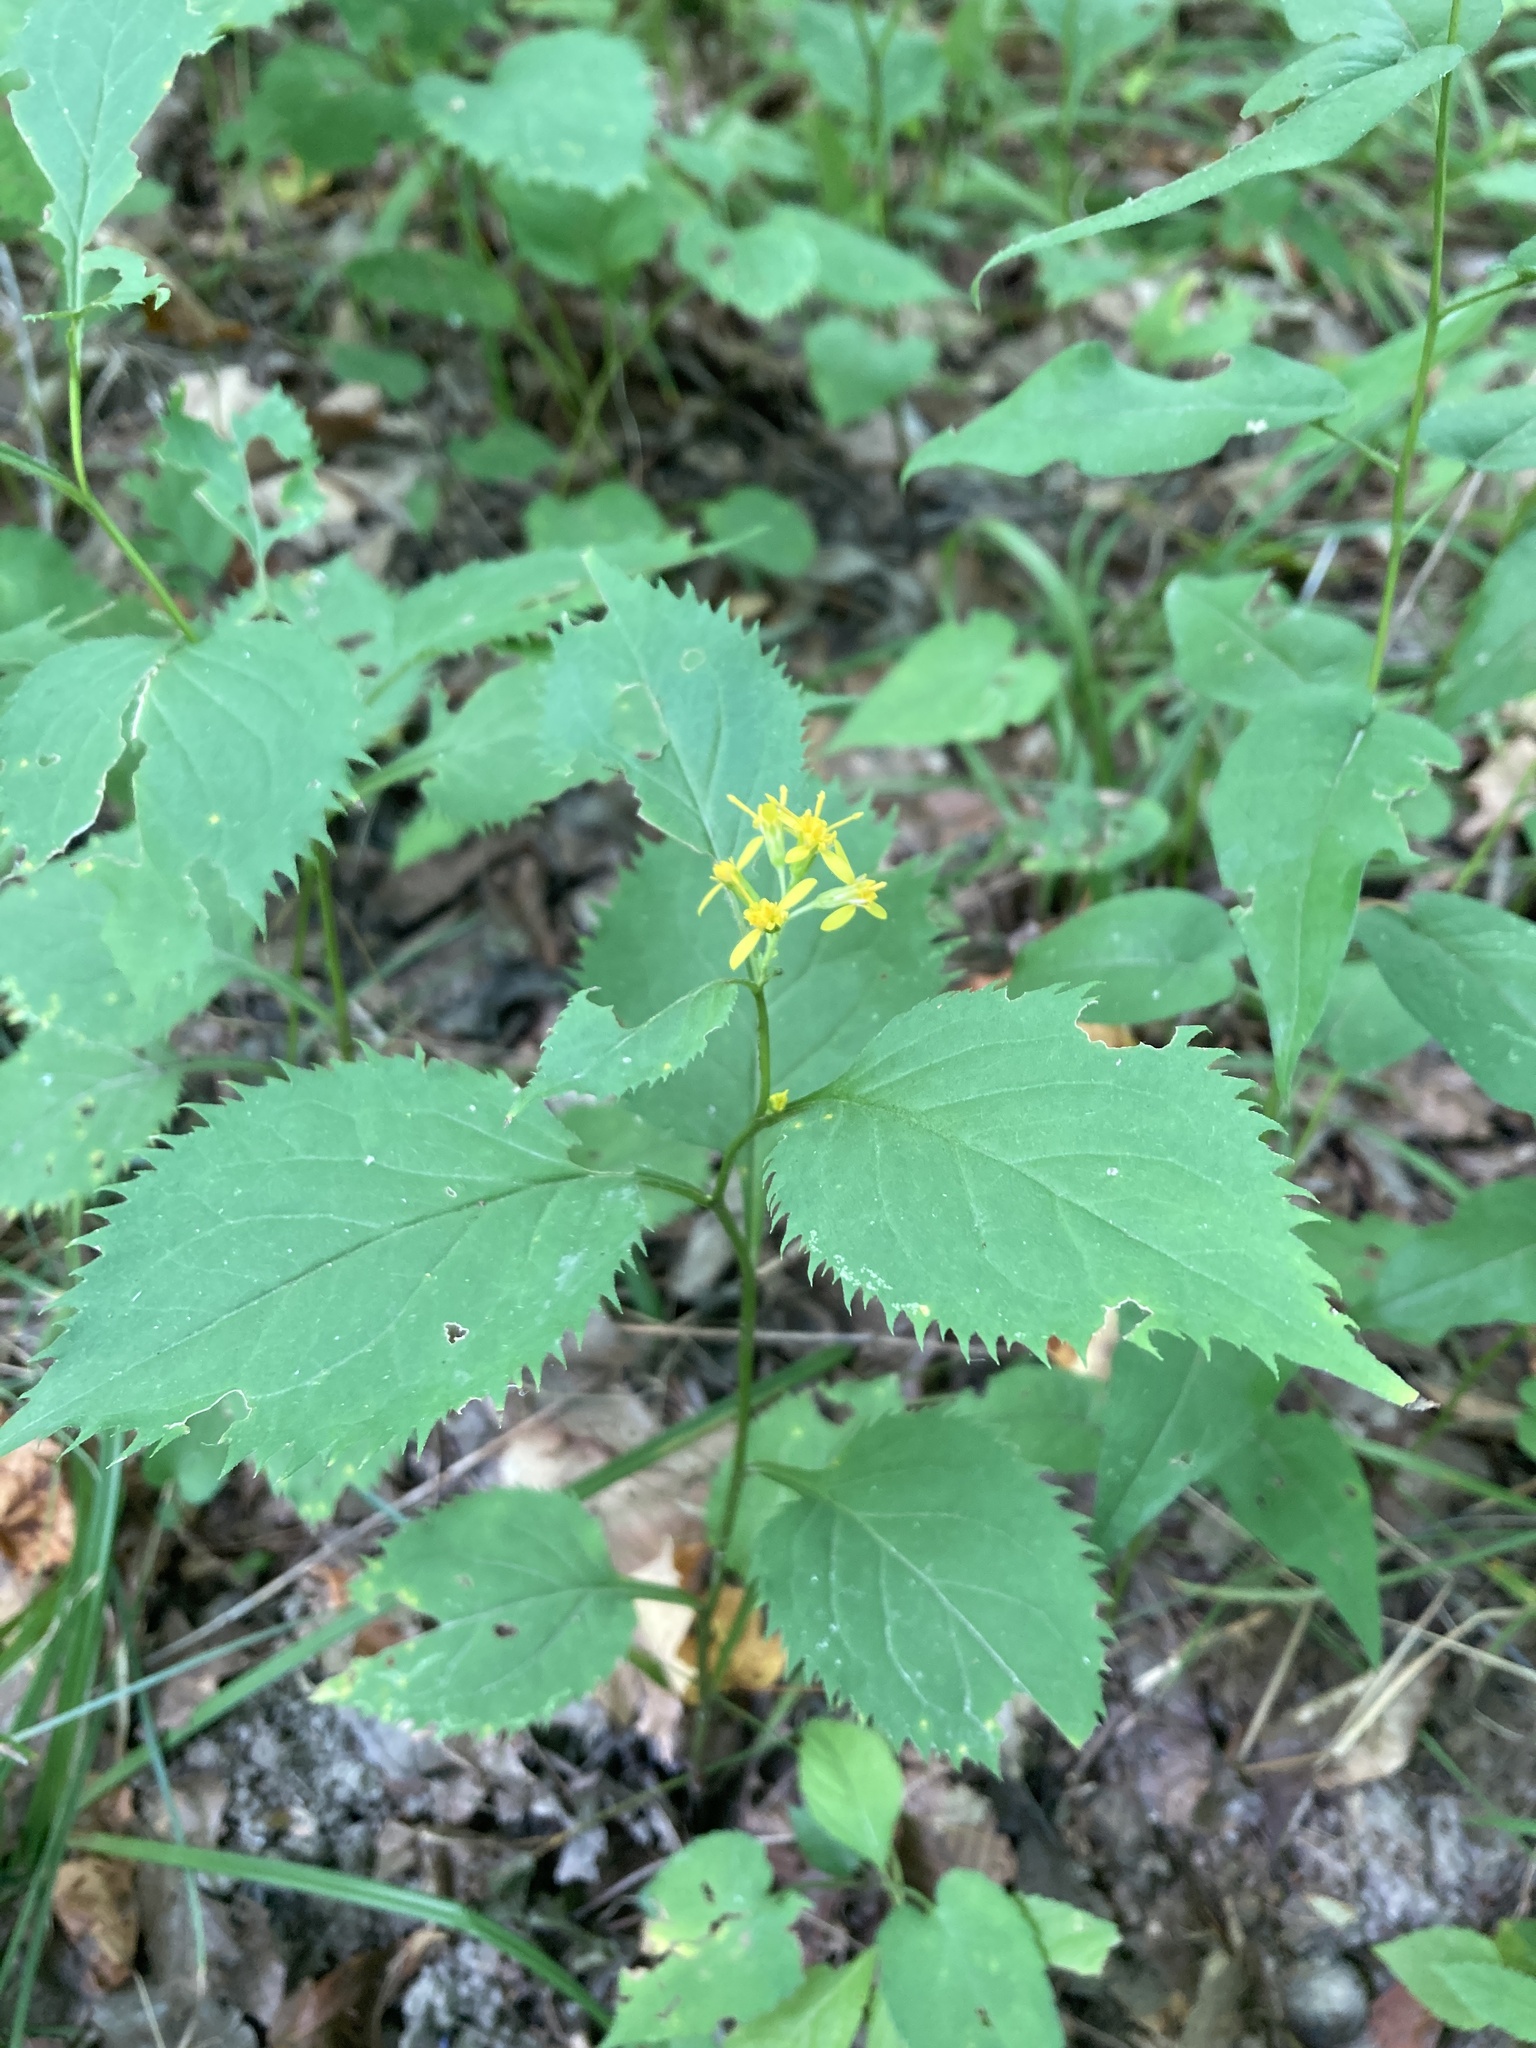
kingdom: Plantae
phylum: Tracheophyta
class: Magnoliopsida
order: Asterales
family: Asteraceae
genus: Solidago
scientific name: Solidago flexicaulis
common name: Zig-zag goldenrod
